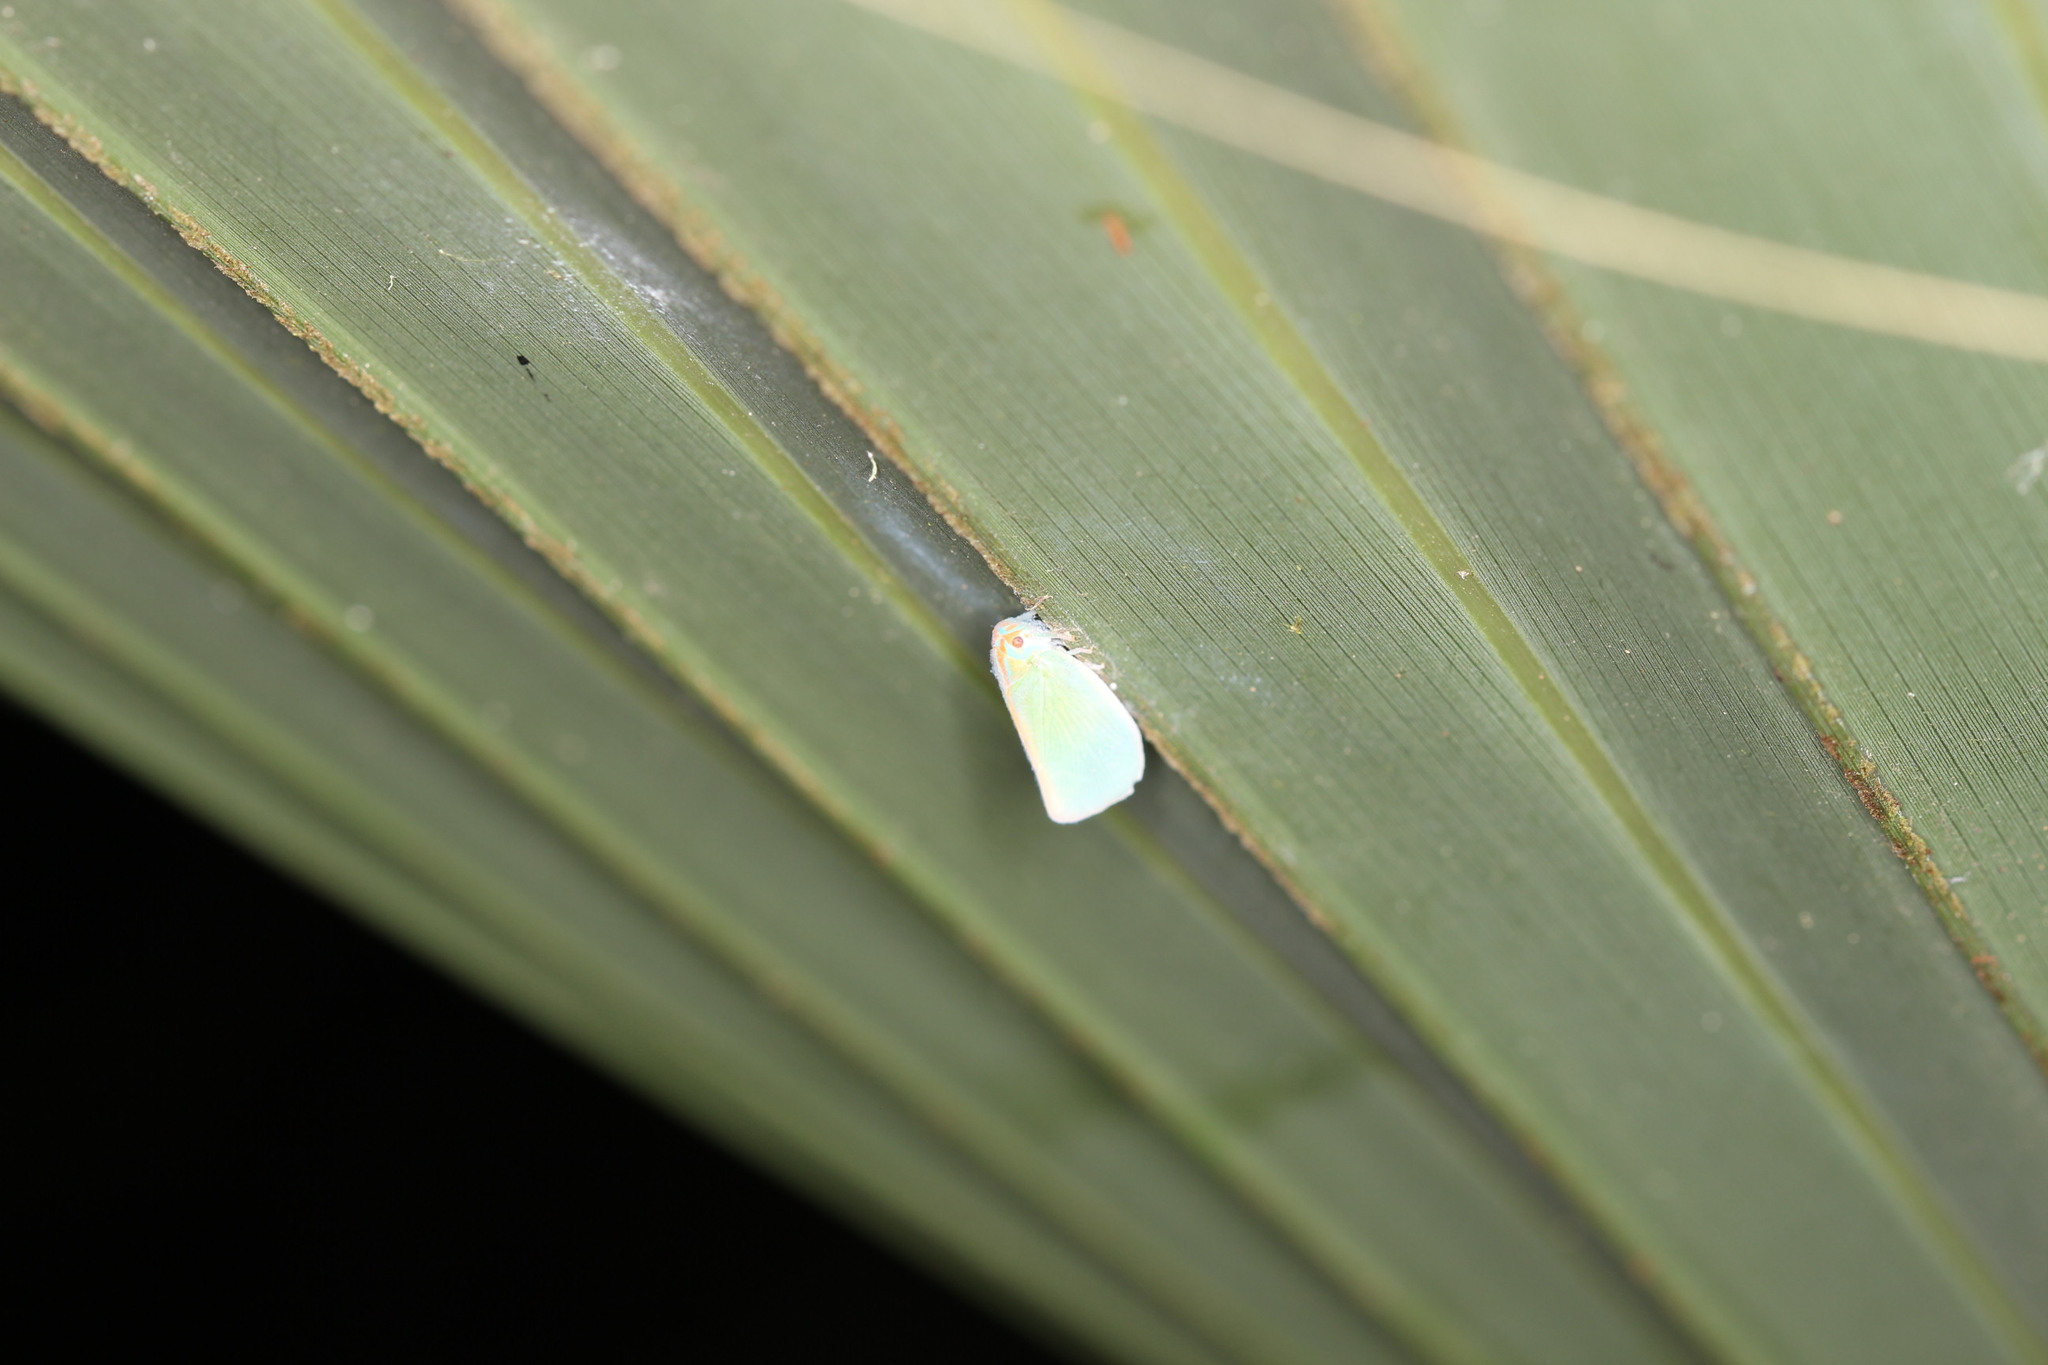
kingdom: Animalia
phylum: Arthropoda
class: Insecta
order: Hemiptera
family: Flatidae
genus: Ormenaria
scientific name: Ormenaria rufifascia
